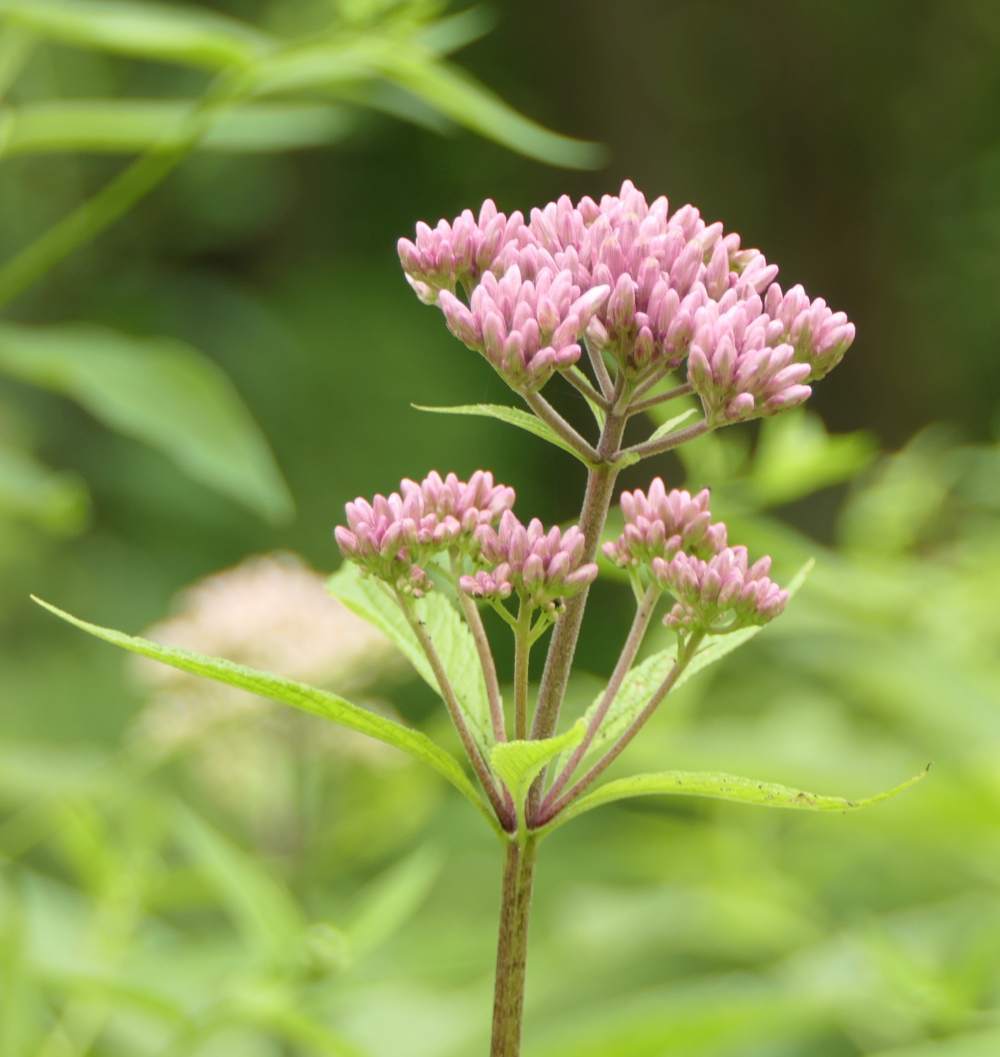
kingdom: Plantae
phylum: Tracheophyta
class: Magnoliopsida
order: Asterales
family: Asteraceae
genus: Eutrochium
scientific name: Eutrochium maculatum
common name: Spotted joe pye weed
